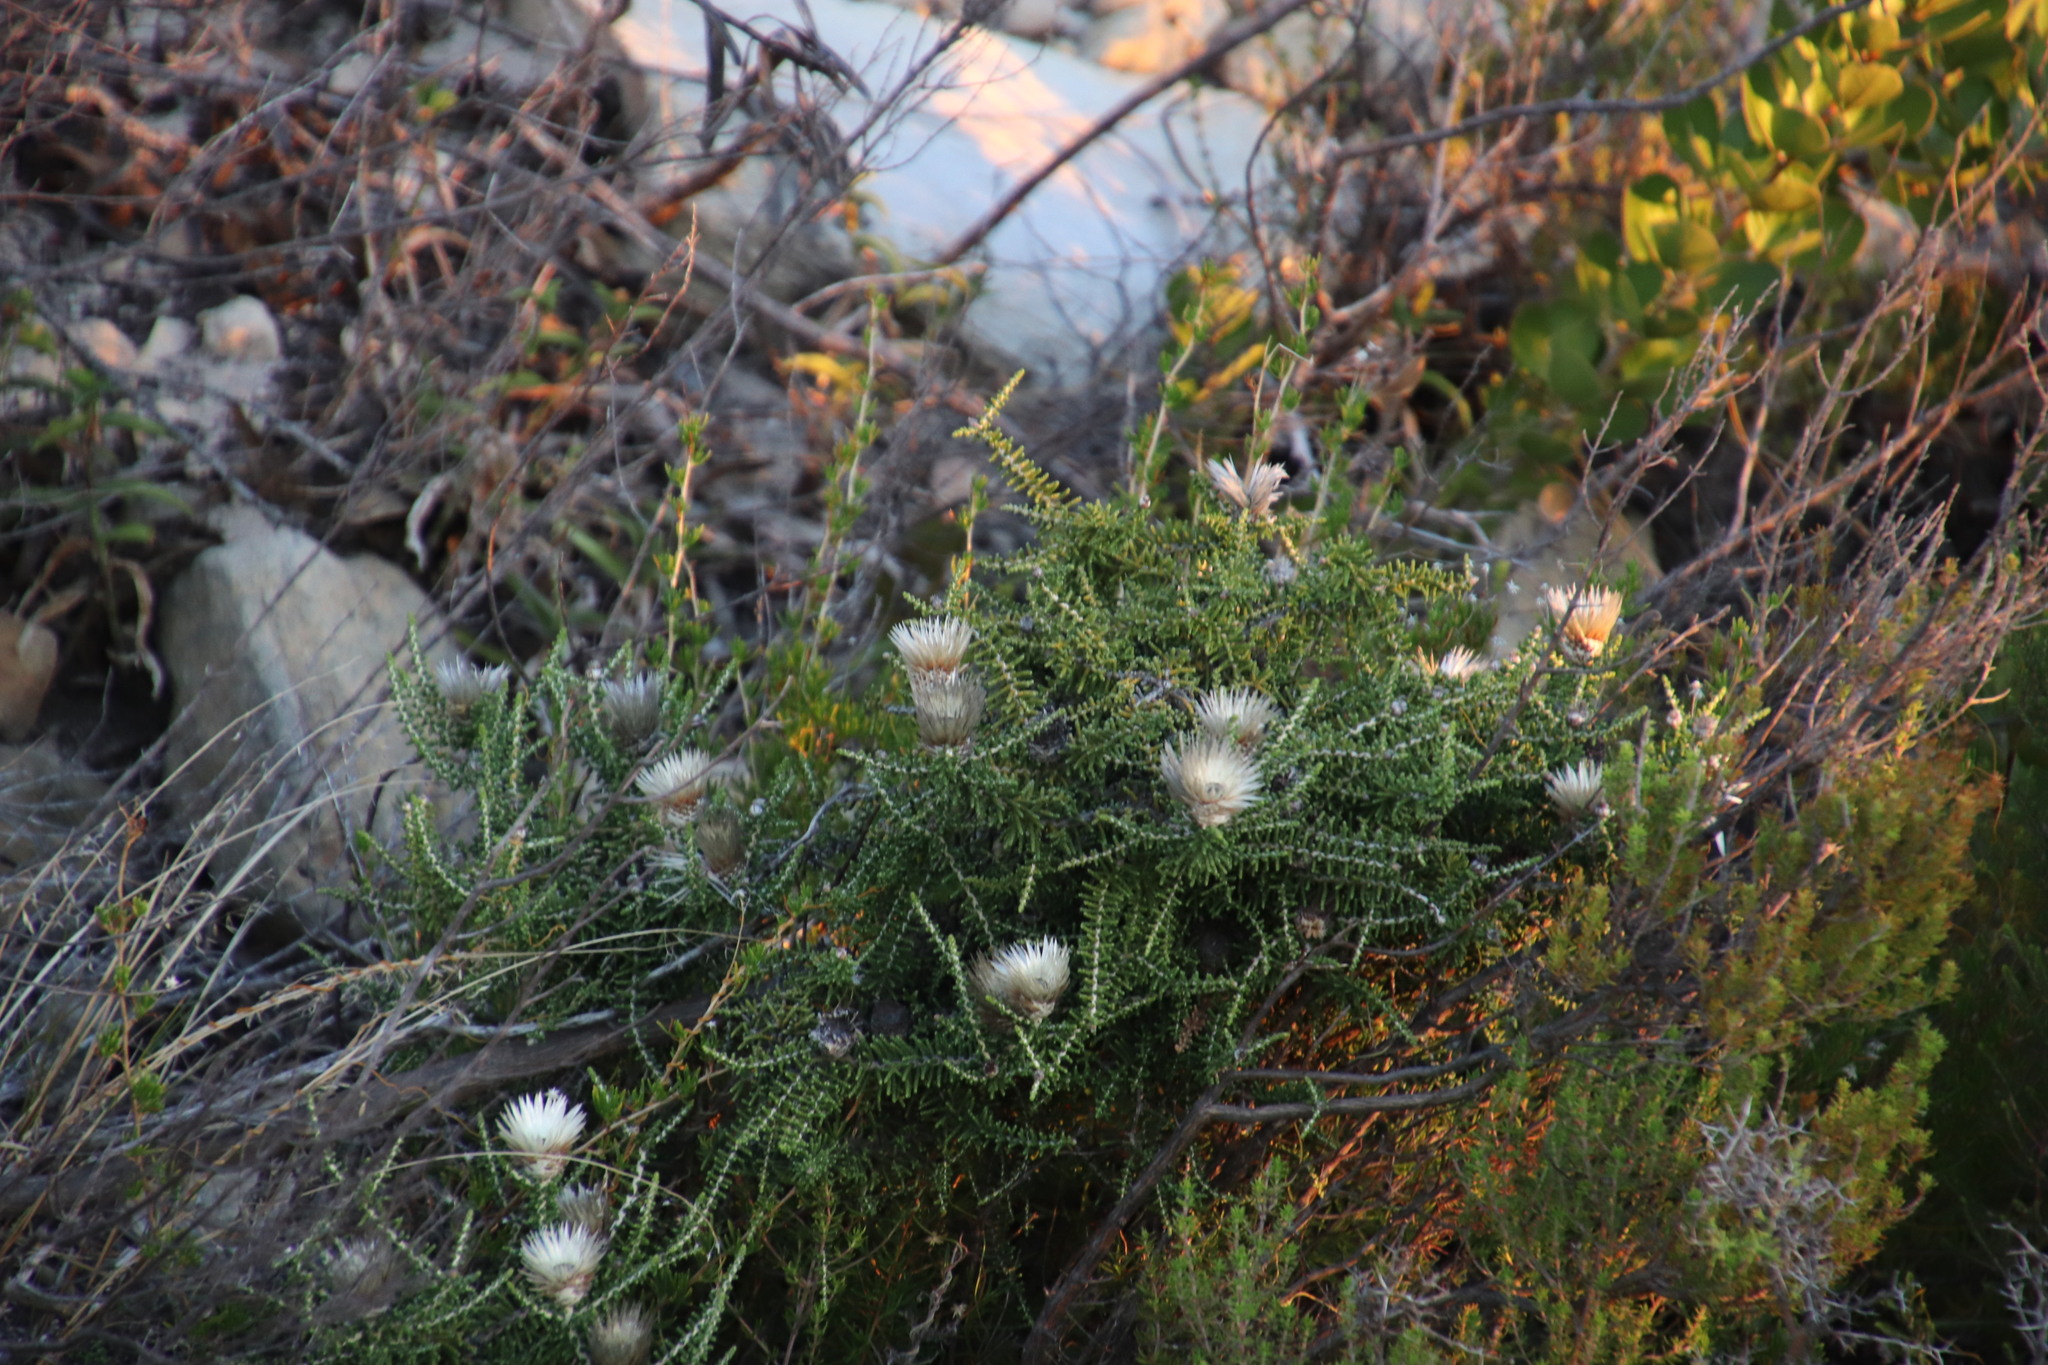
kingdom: Plantae
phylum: Tracheophyta
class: Magnoliopsida
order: Asterales
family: Asteraceae
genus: Phaenocoma
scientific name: Phaenocoma prolifera
